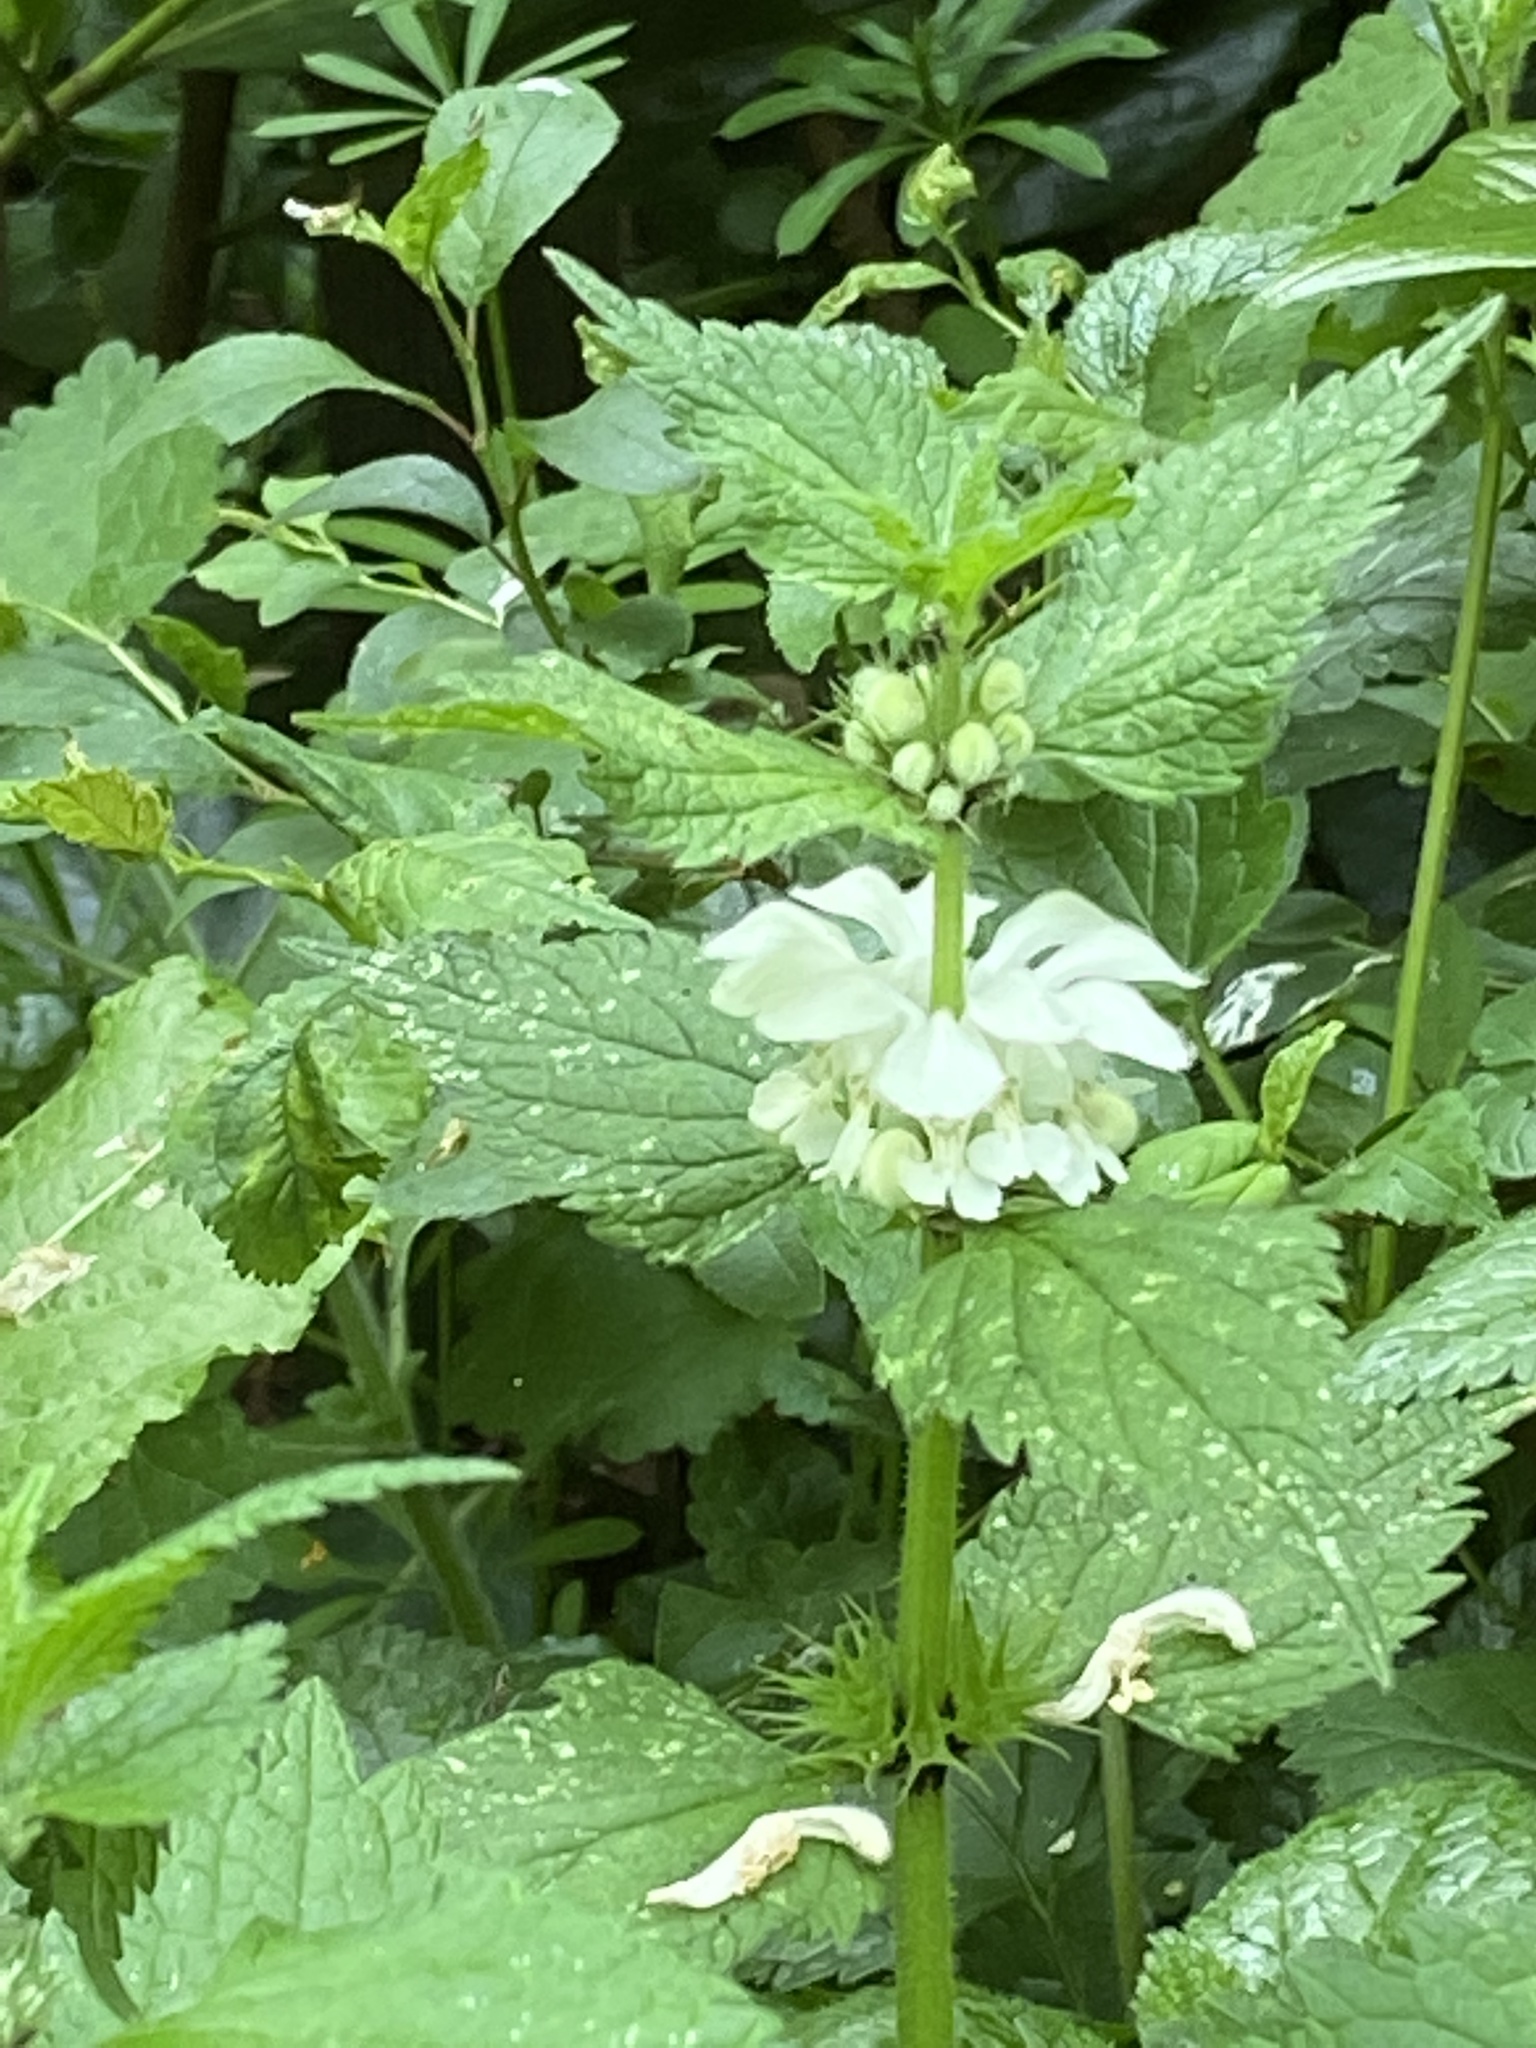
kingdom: Plantae
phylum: Tracheophyta
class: Magnoliopsida
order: Lamiales
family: Lamiaceae
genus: Lamium
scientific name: Lamium album
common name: White dead-nettle
